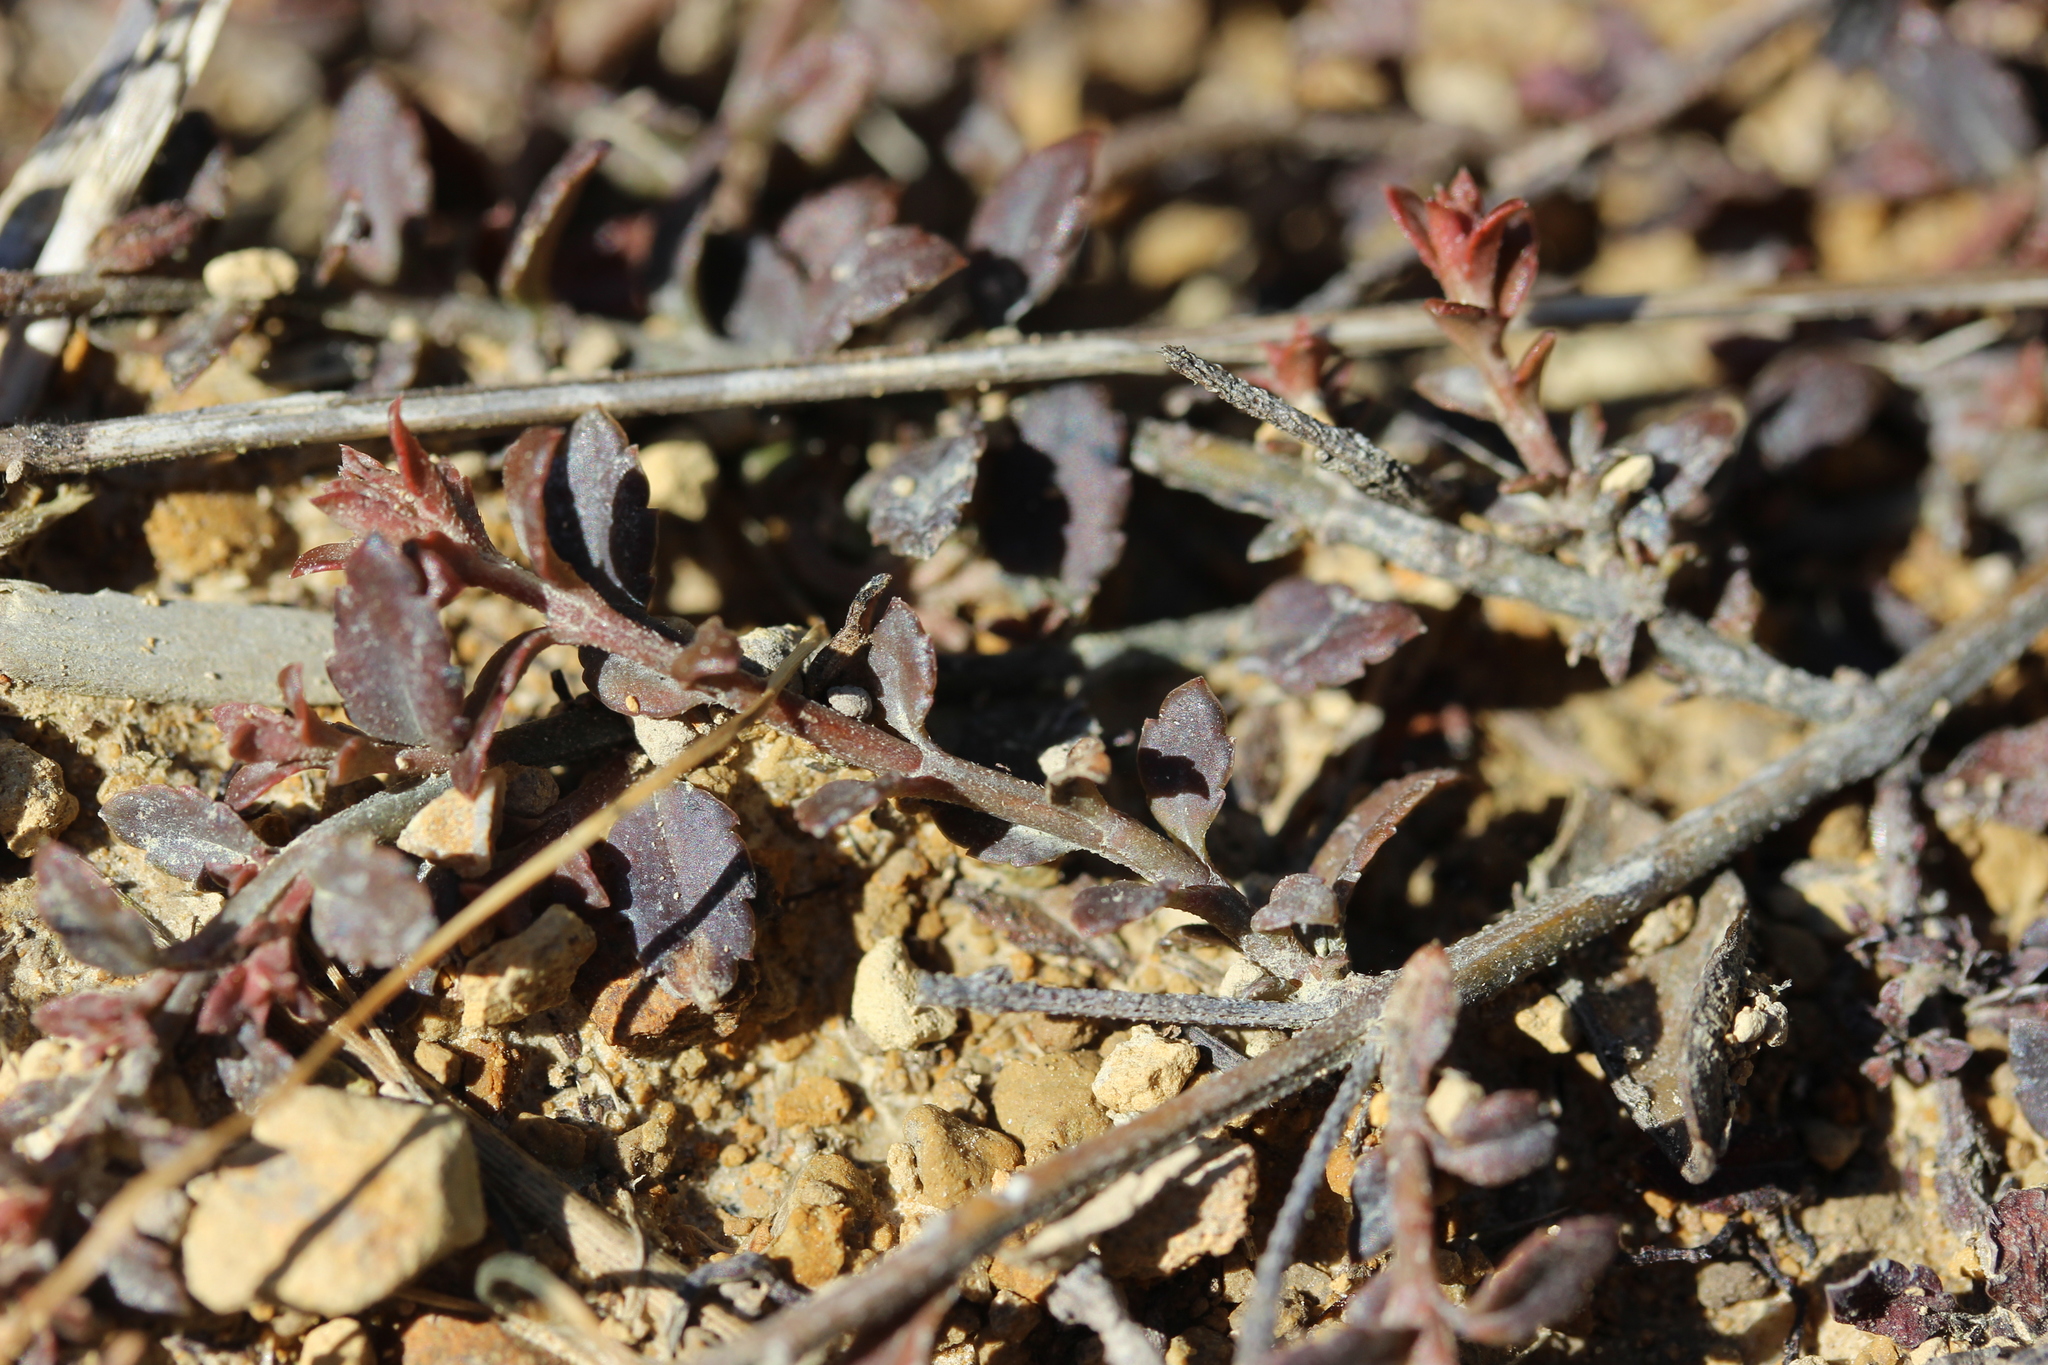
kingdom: Plantae
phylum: Tracheophyta
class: Magnoliopsida
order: Saxifragales
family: Haloragaceae
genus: Gonocarpus
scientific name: Gonocarpus incanus
